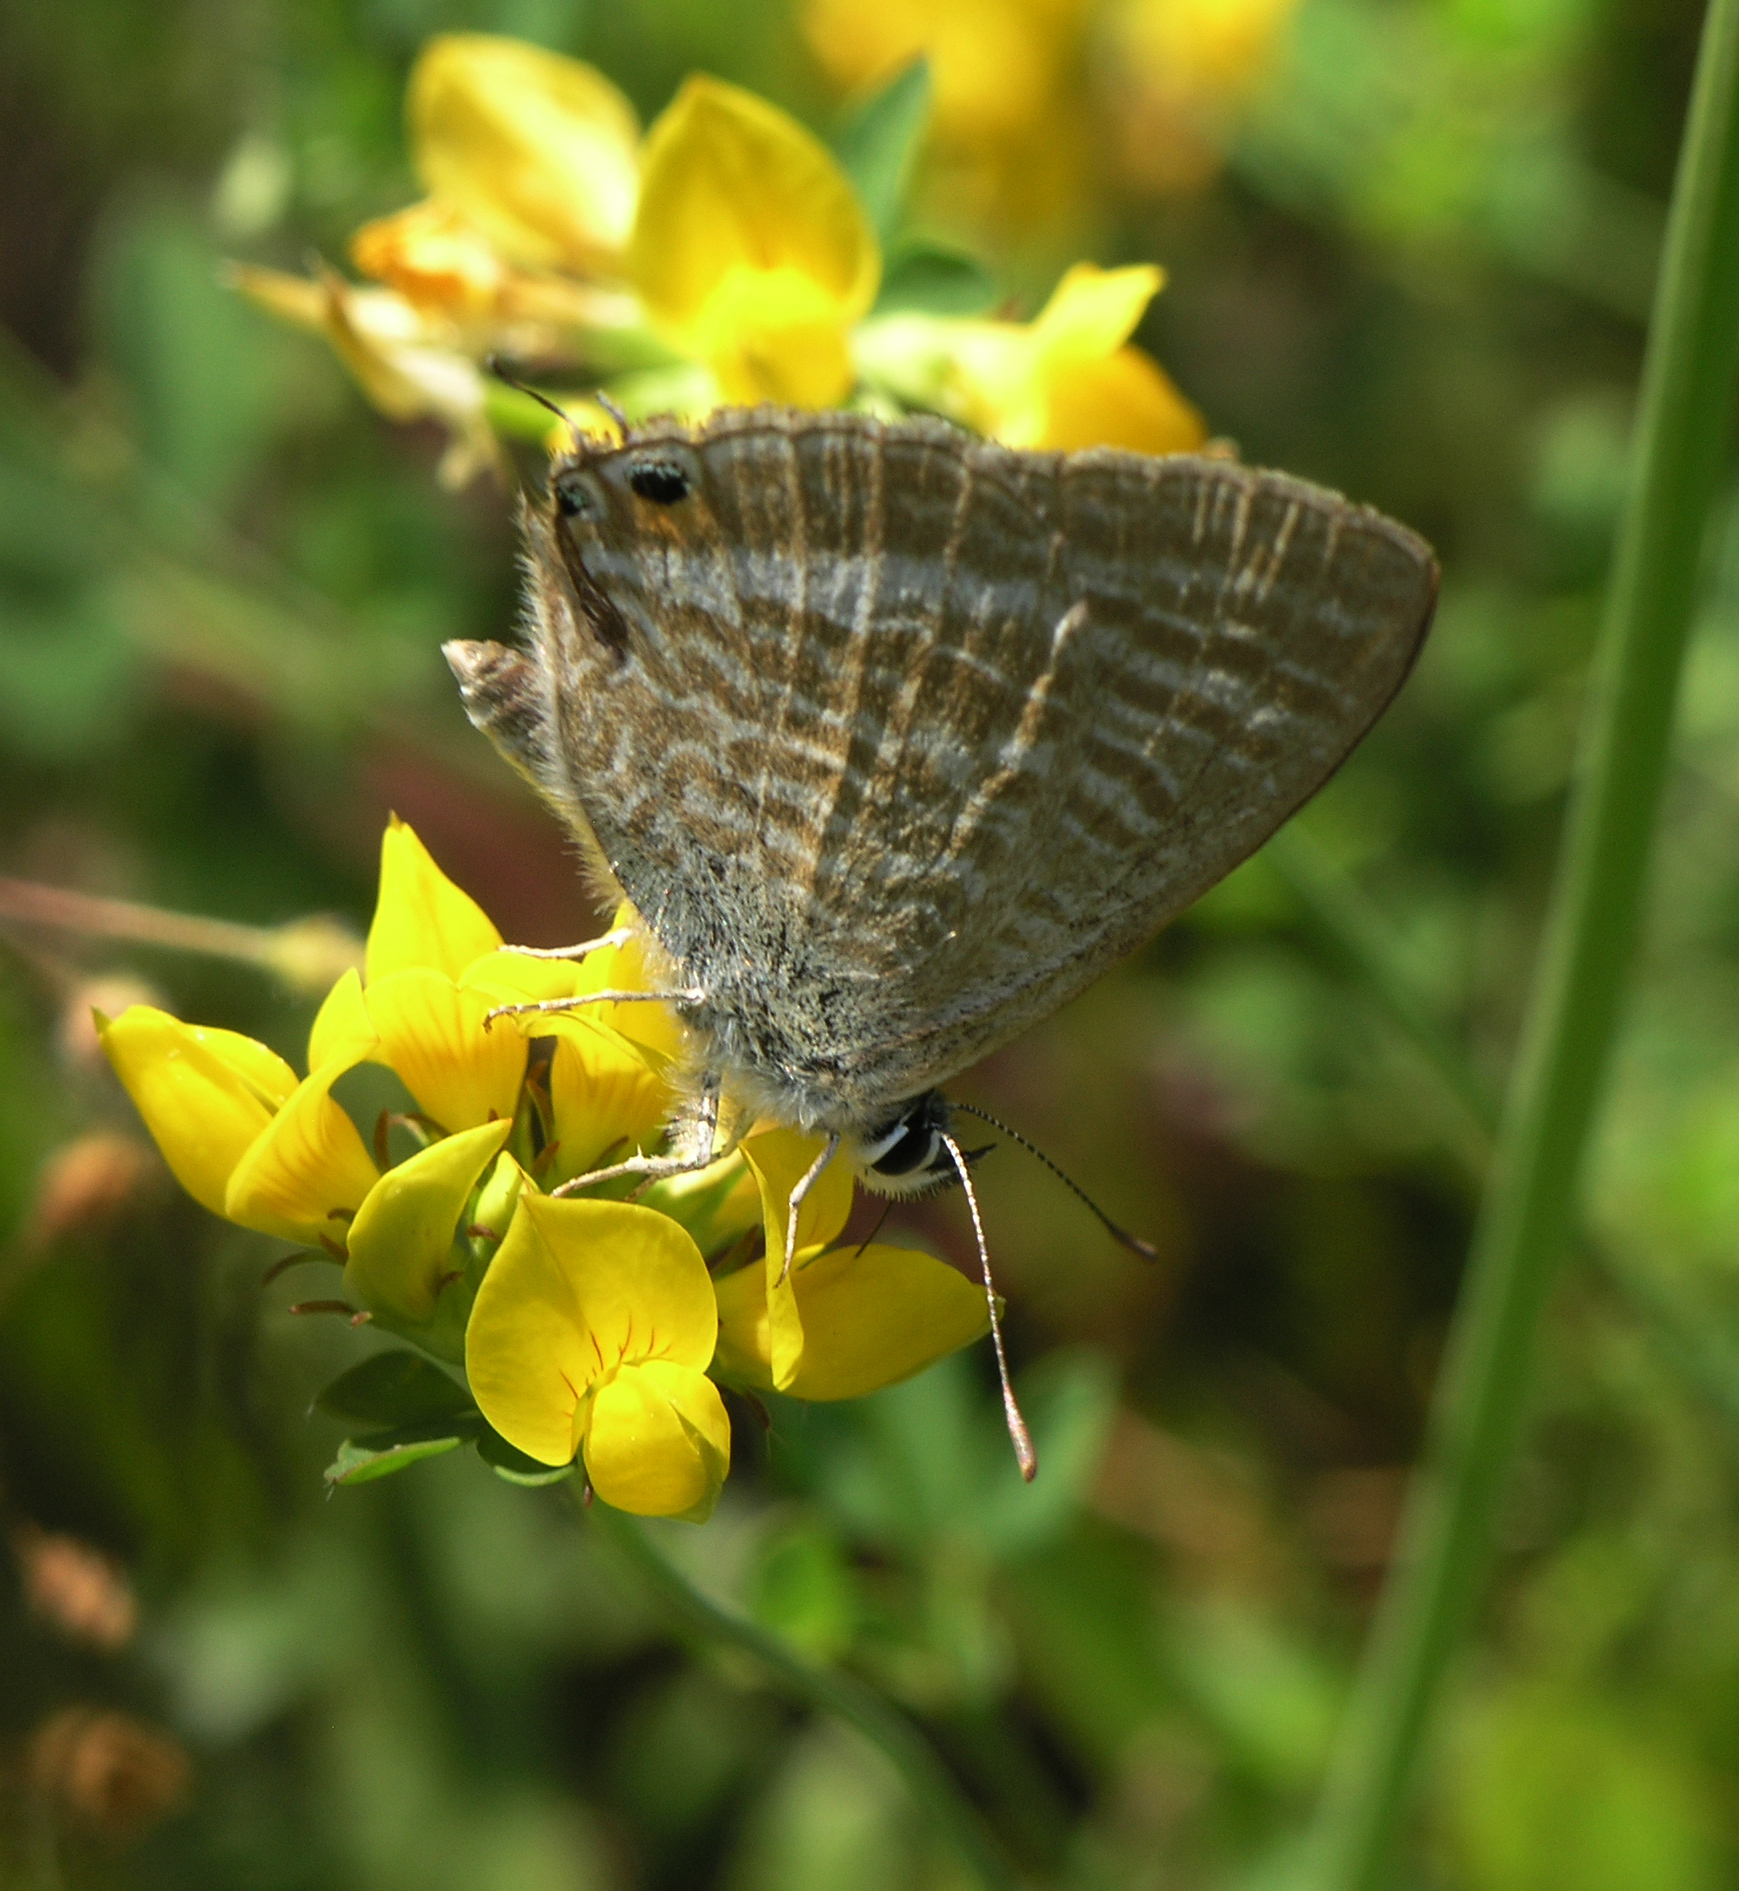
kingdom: Animalia
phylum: Arthropoda
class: Insecta
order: Lepidoptera
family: Lycaenidae
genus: Lampides
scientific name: Lampides boeticus
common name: Long-tailed blue
